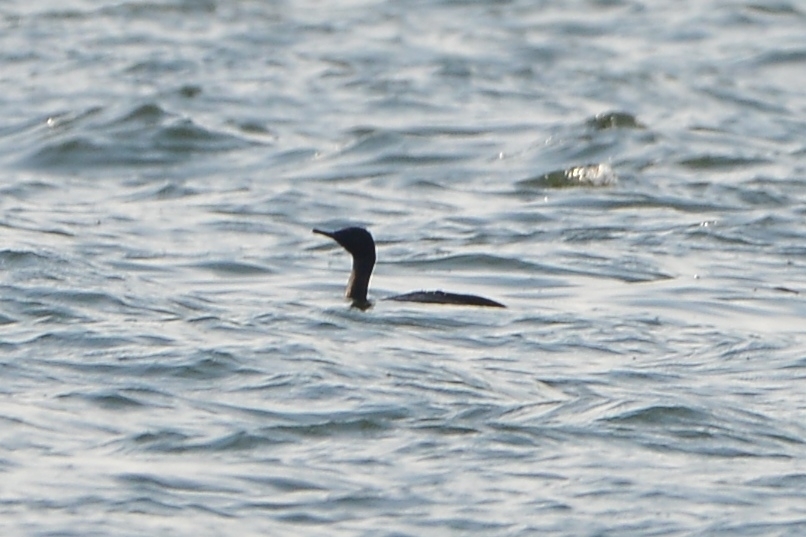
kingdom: Animalia
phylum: Chordata
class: Aves
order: Suliformes
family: Phalacrocoracidae
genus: Phalacrocorax
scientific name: Phalacrocorax pelagicus
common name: Pelagic cormorant
